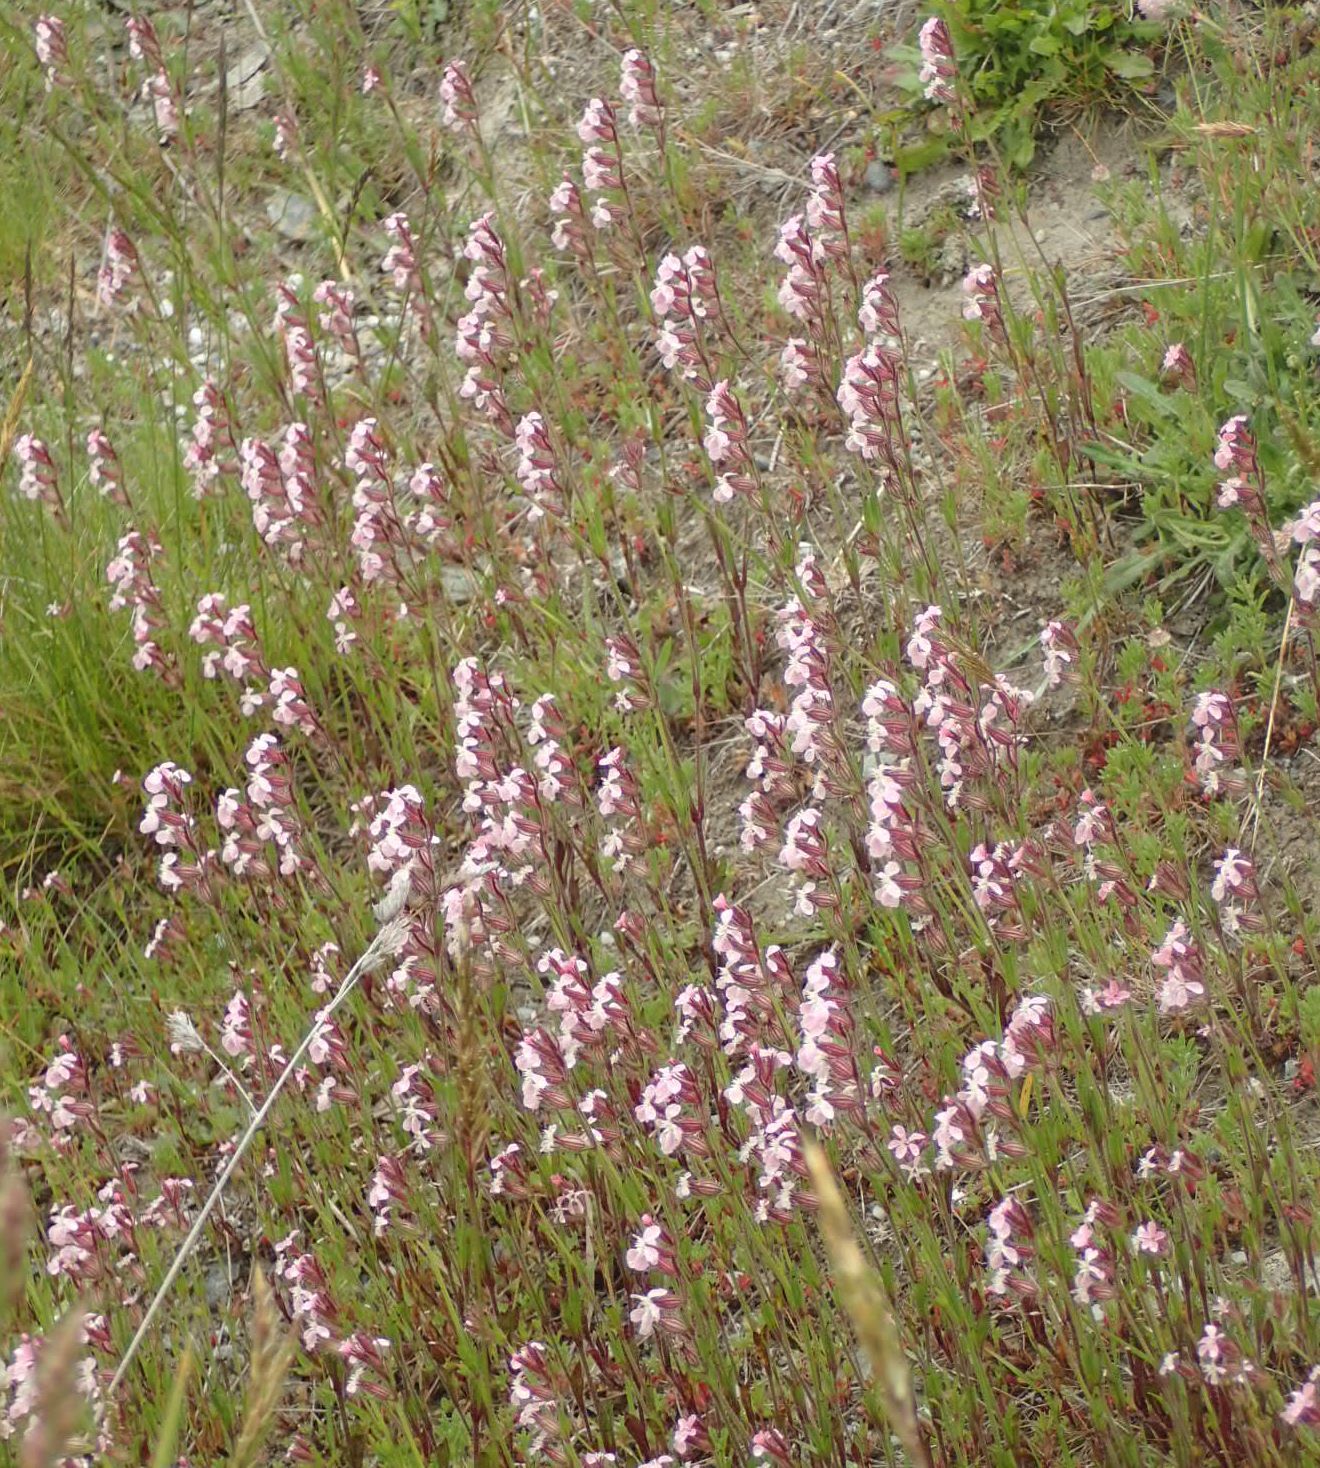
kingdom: Plantae
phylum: Tracheophyta
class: Magnoliopsida
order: Caryophyllales
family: Caryophyllaceae
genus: Silene
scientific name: Silene gallica
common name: Small-flowered catchfly
